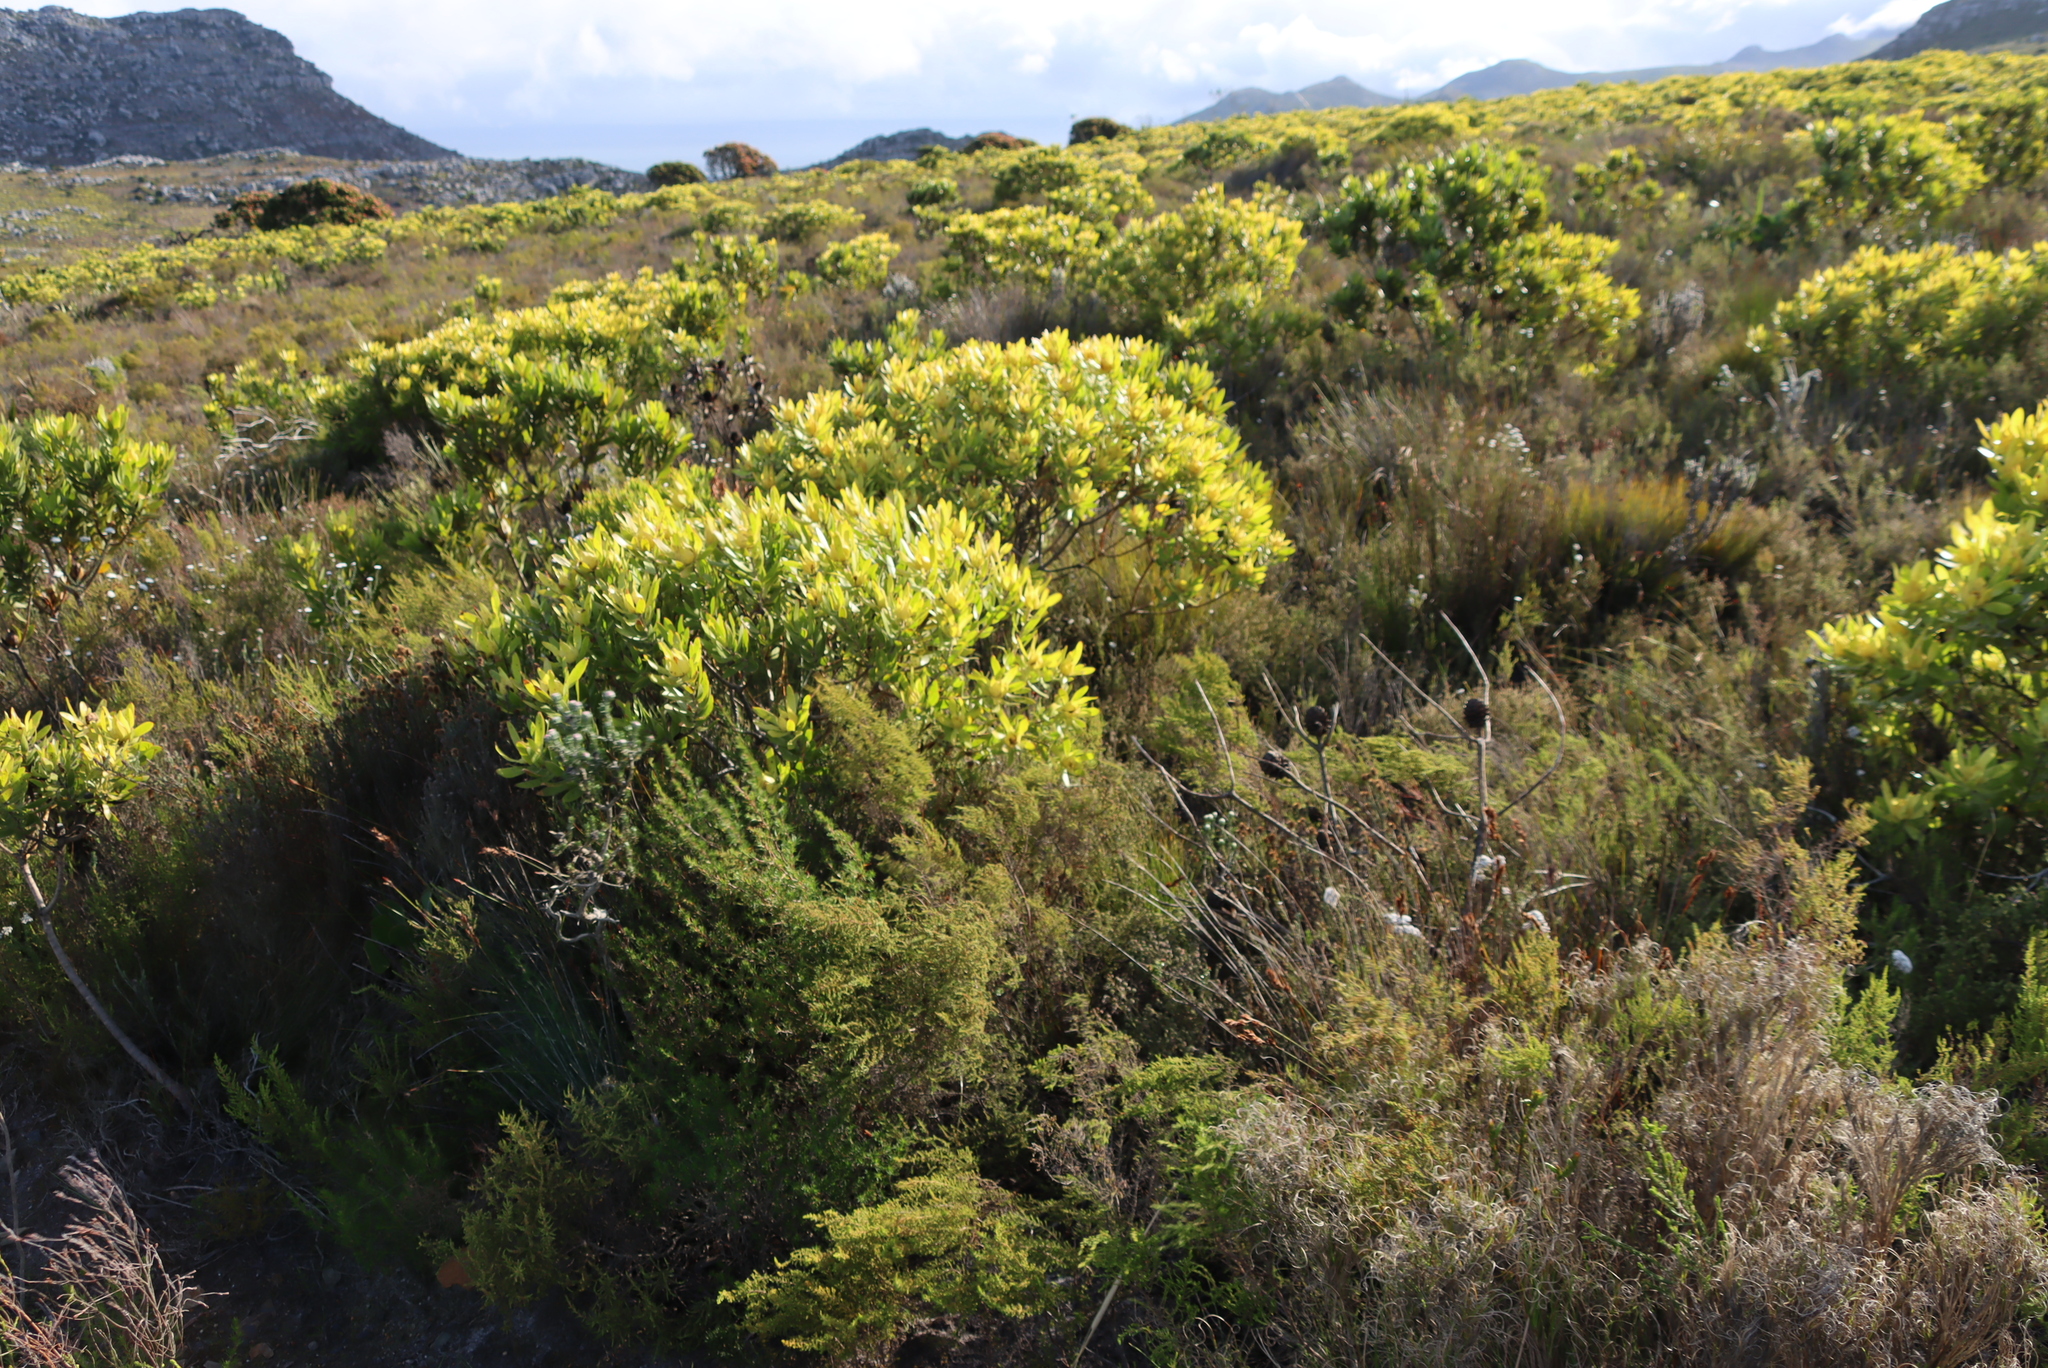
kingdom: Plantae
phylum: Tracheophyta
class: Magnoliopsida
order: Proteales
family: Proteaceae
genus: Leucadendron
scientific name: Leucadendron laureolum
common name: Golden sunshinebush
